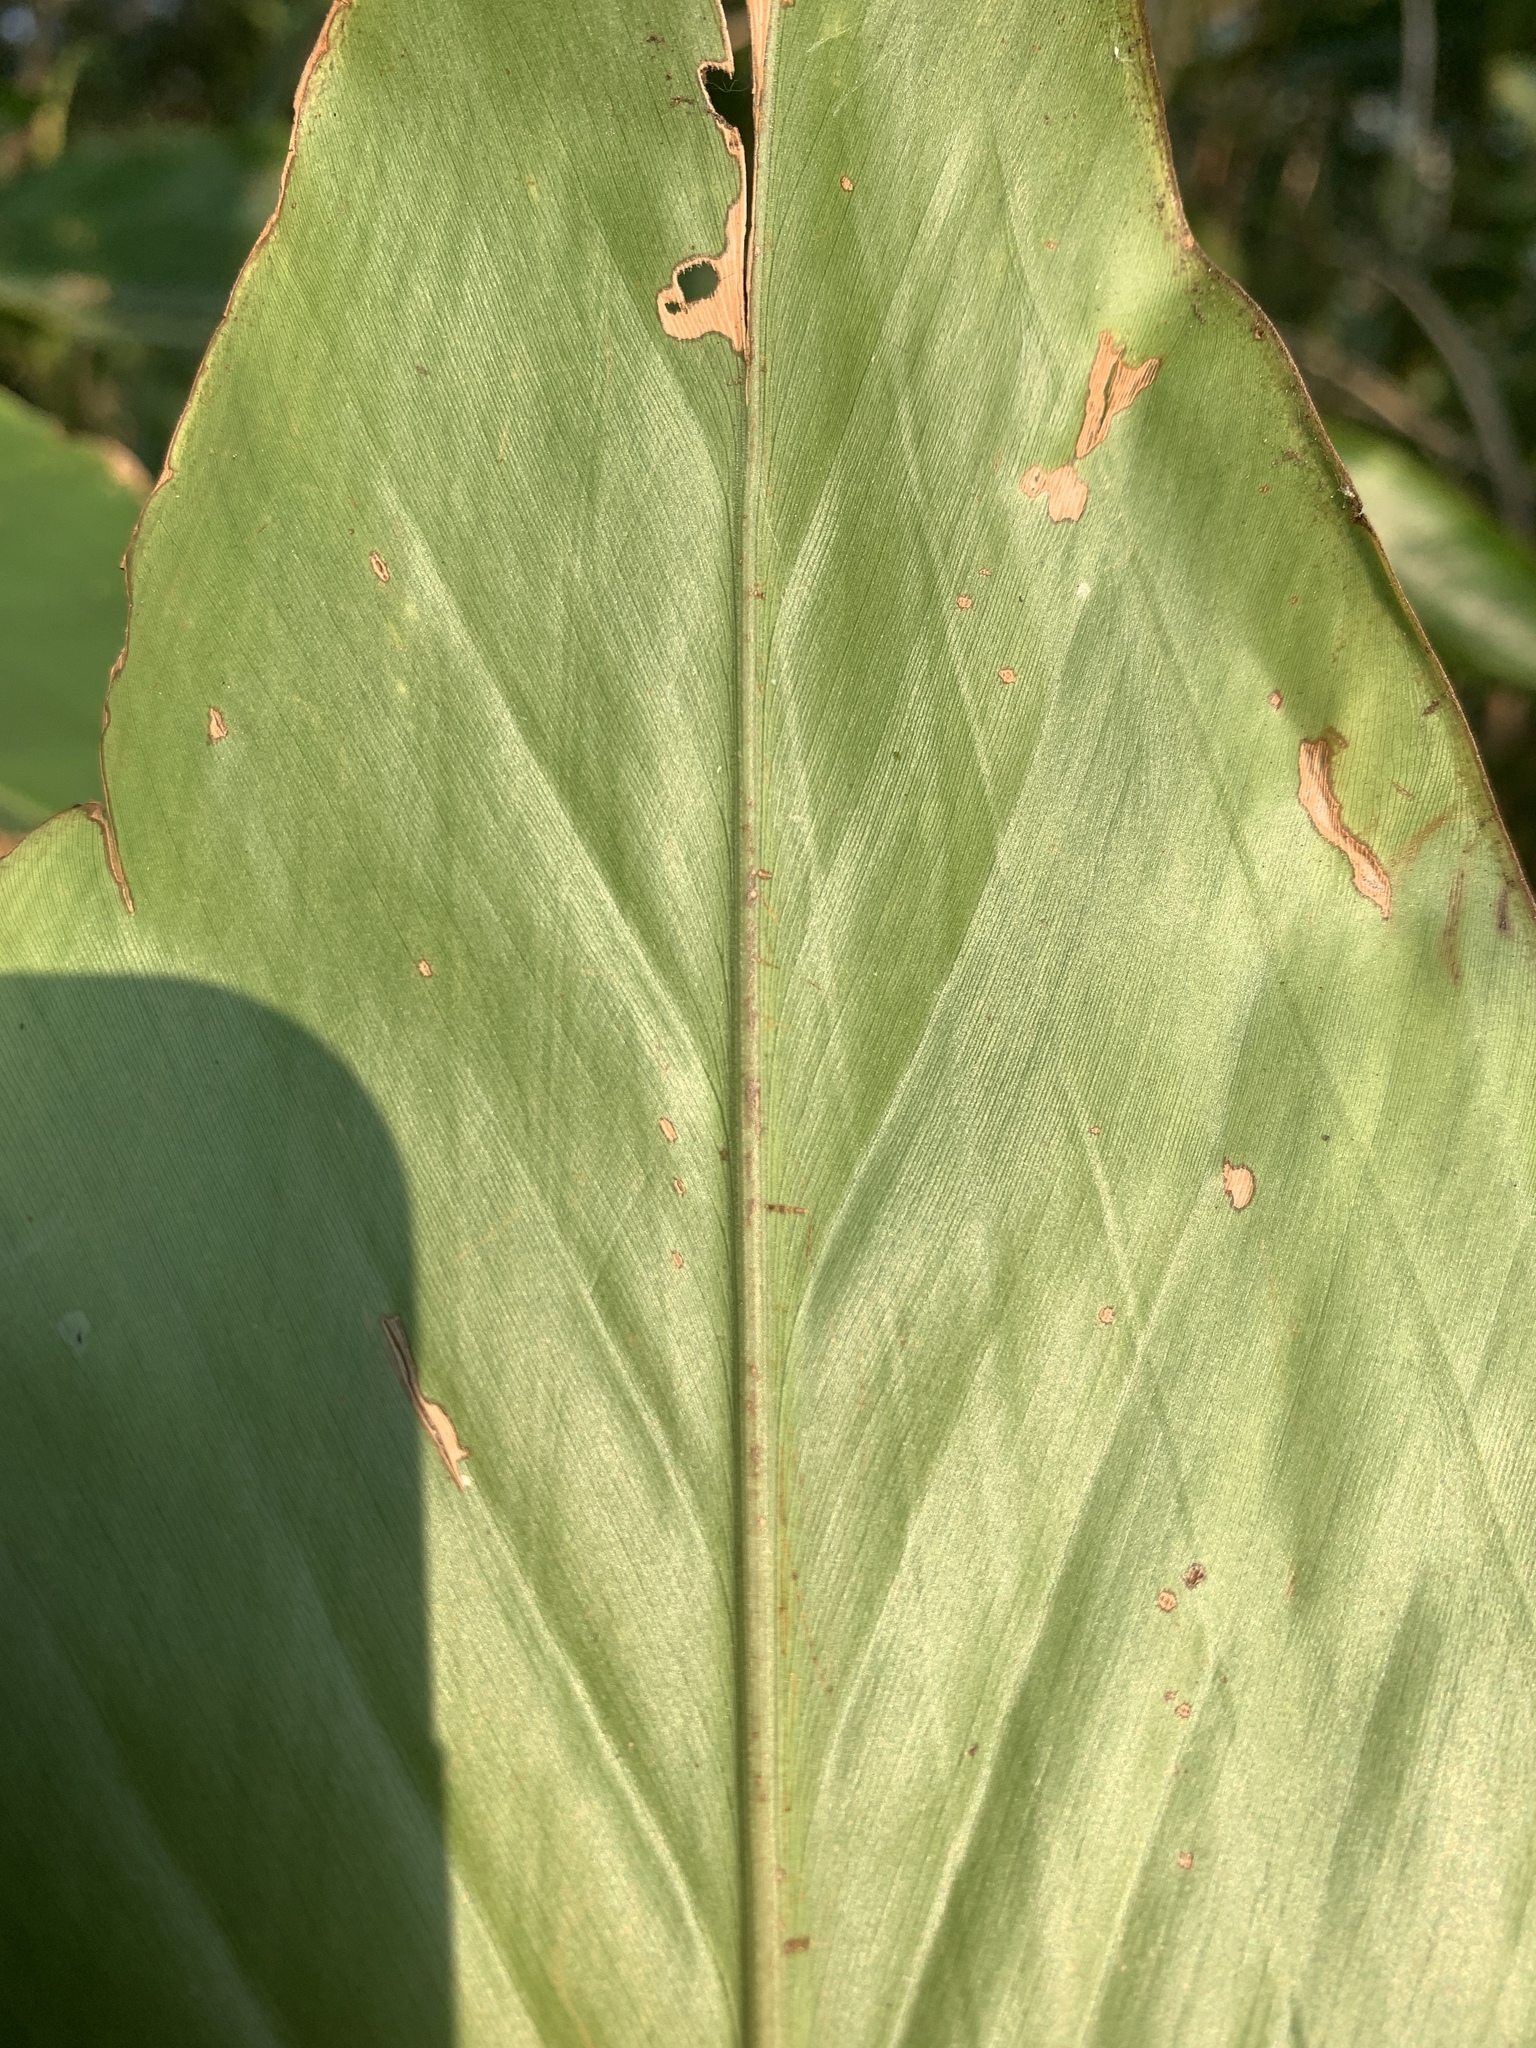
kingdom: Plantae
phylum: Tracheophyta
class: Liliopsida
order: Zingiberales
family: Zingiberaceae
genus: Alpinia
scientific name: Alpinia uraiensis
